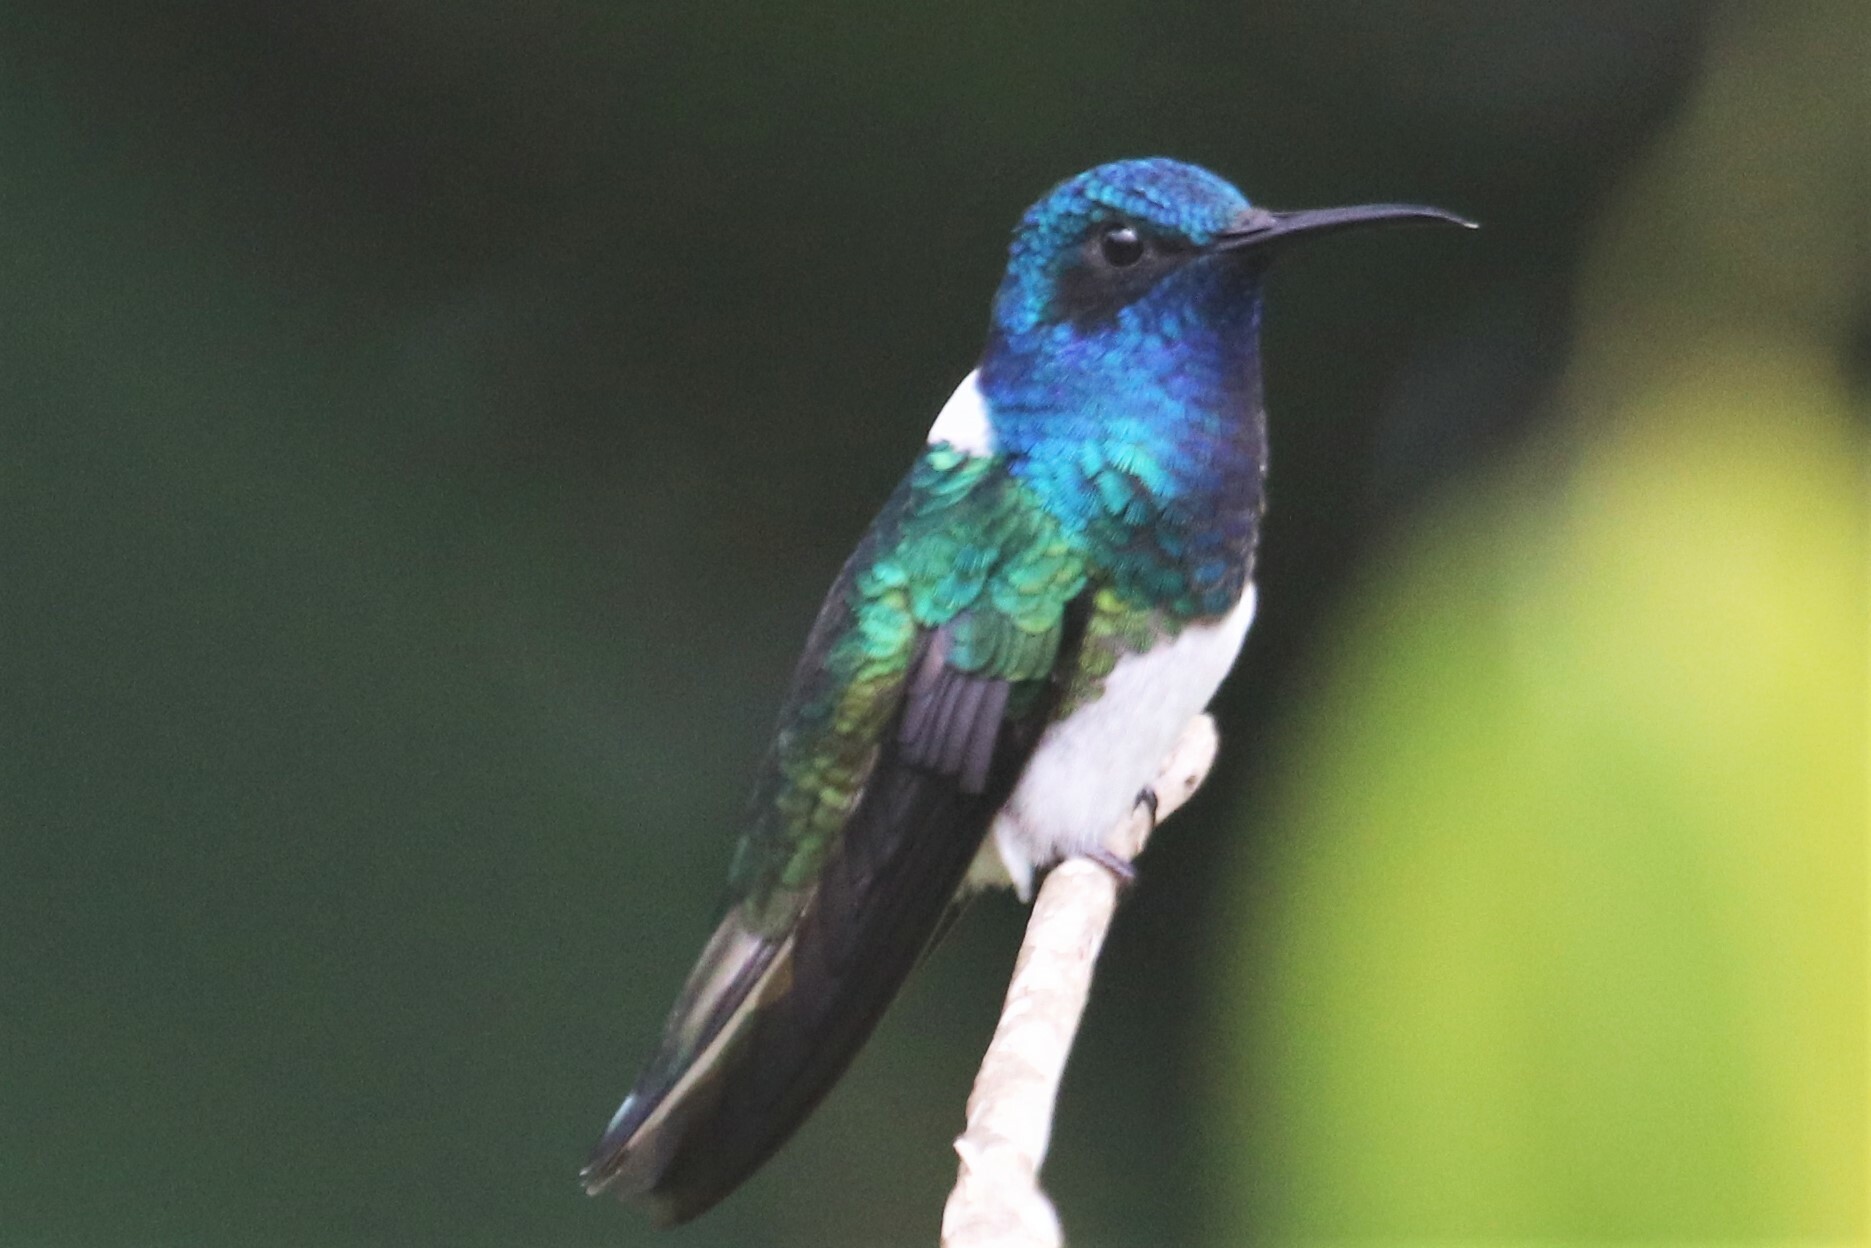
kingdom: Animalia
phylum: Chordata
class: Aves
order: Apodiformes
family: Trochilidae
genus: Florisuga
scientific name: Florisuga mellivora
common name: White-necked jacobin
